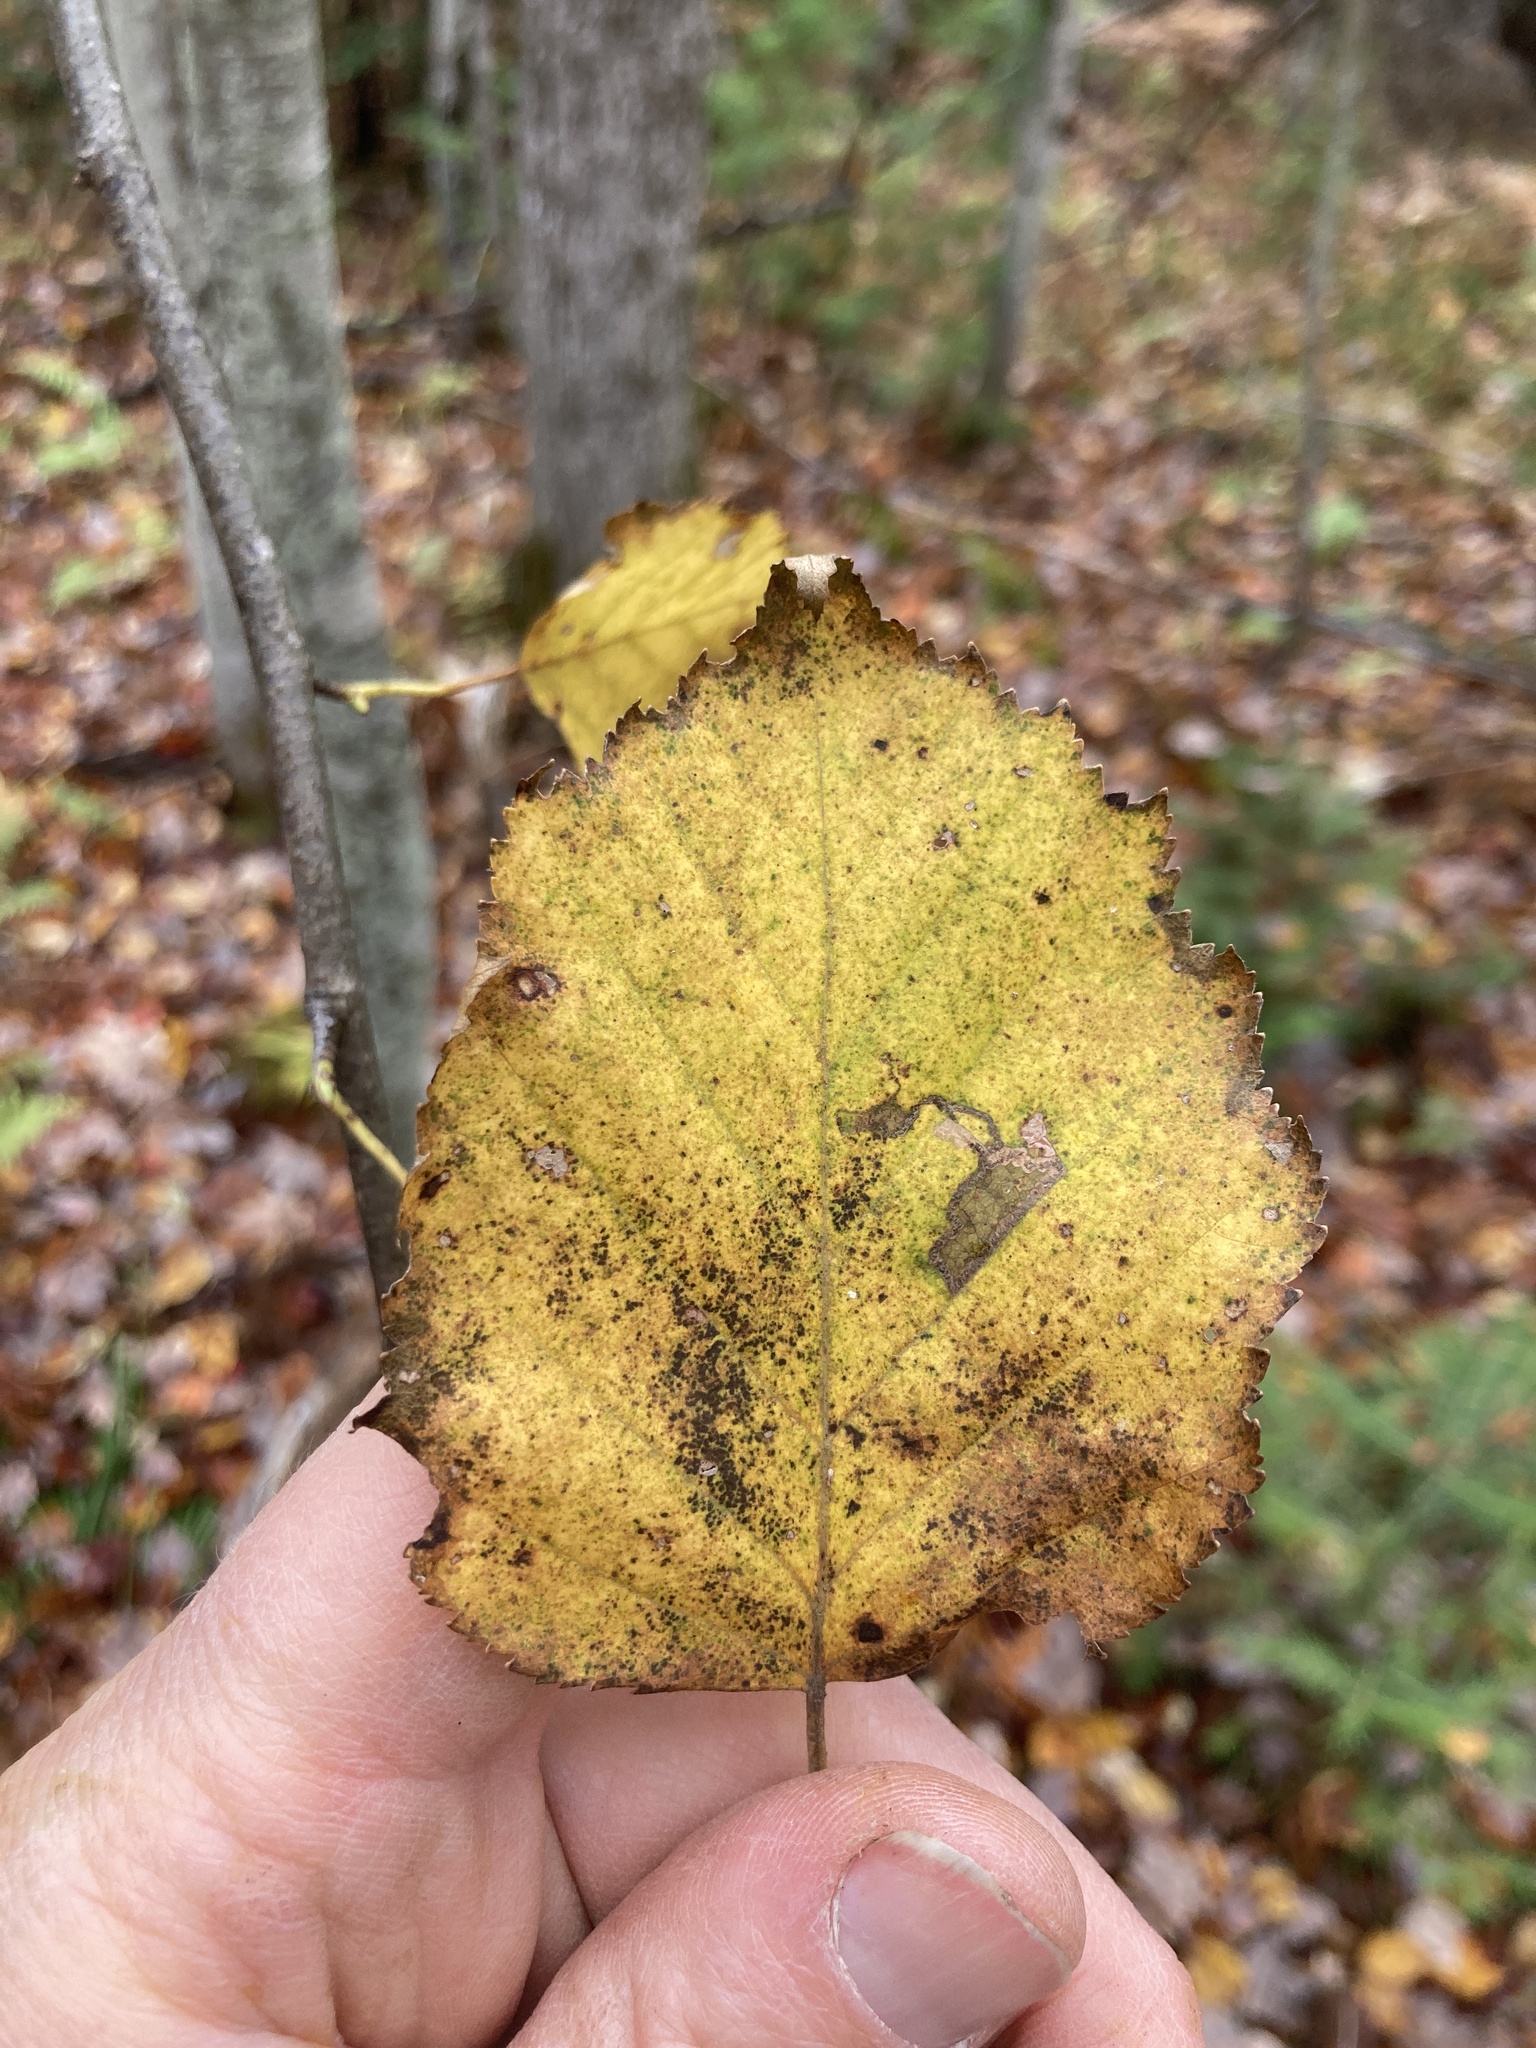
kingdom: Plantae
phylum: Tracheophyta
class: Magnoliopsida
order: Fagales
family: Betulaceae
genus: Betula
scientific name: Betula papyrifera
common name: Paper birch
